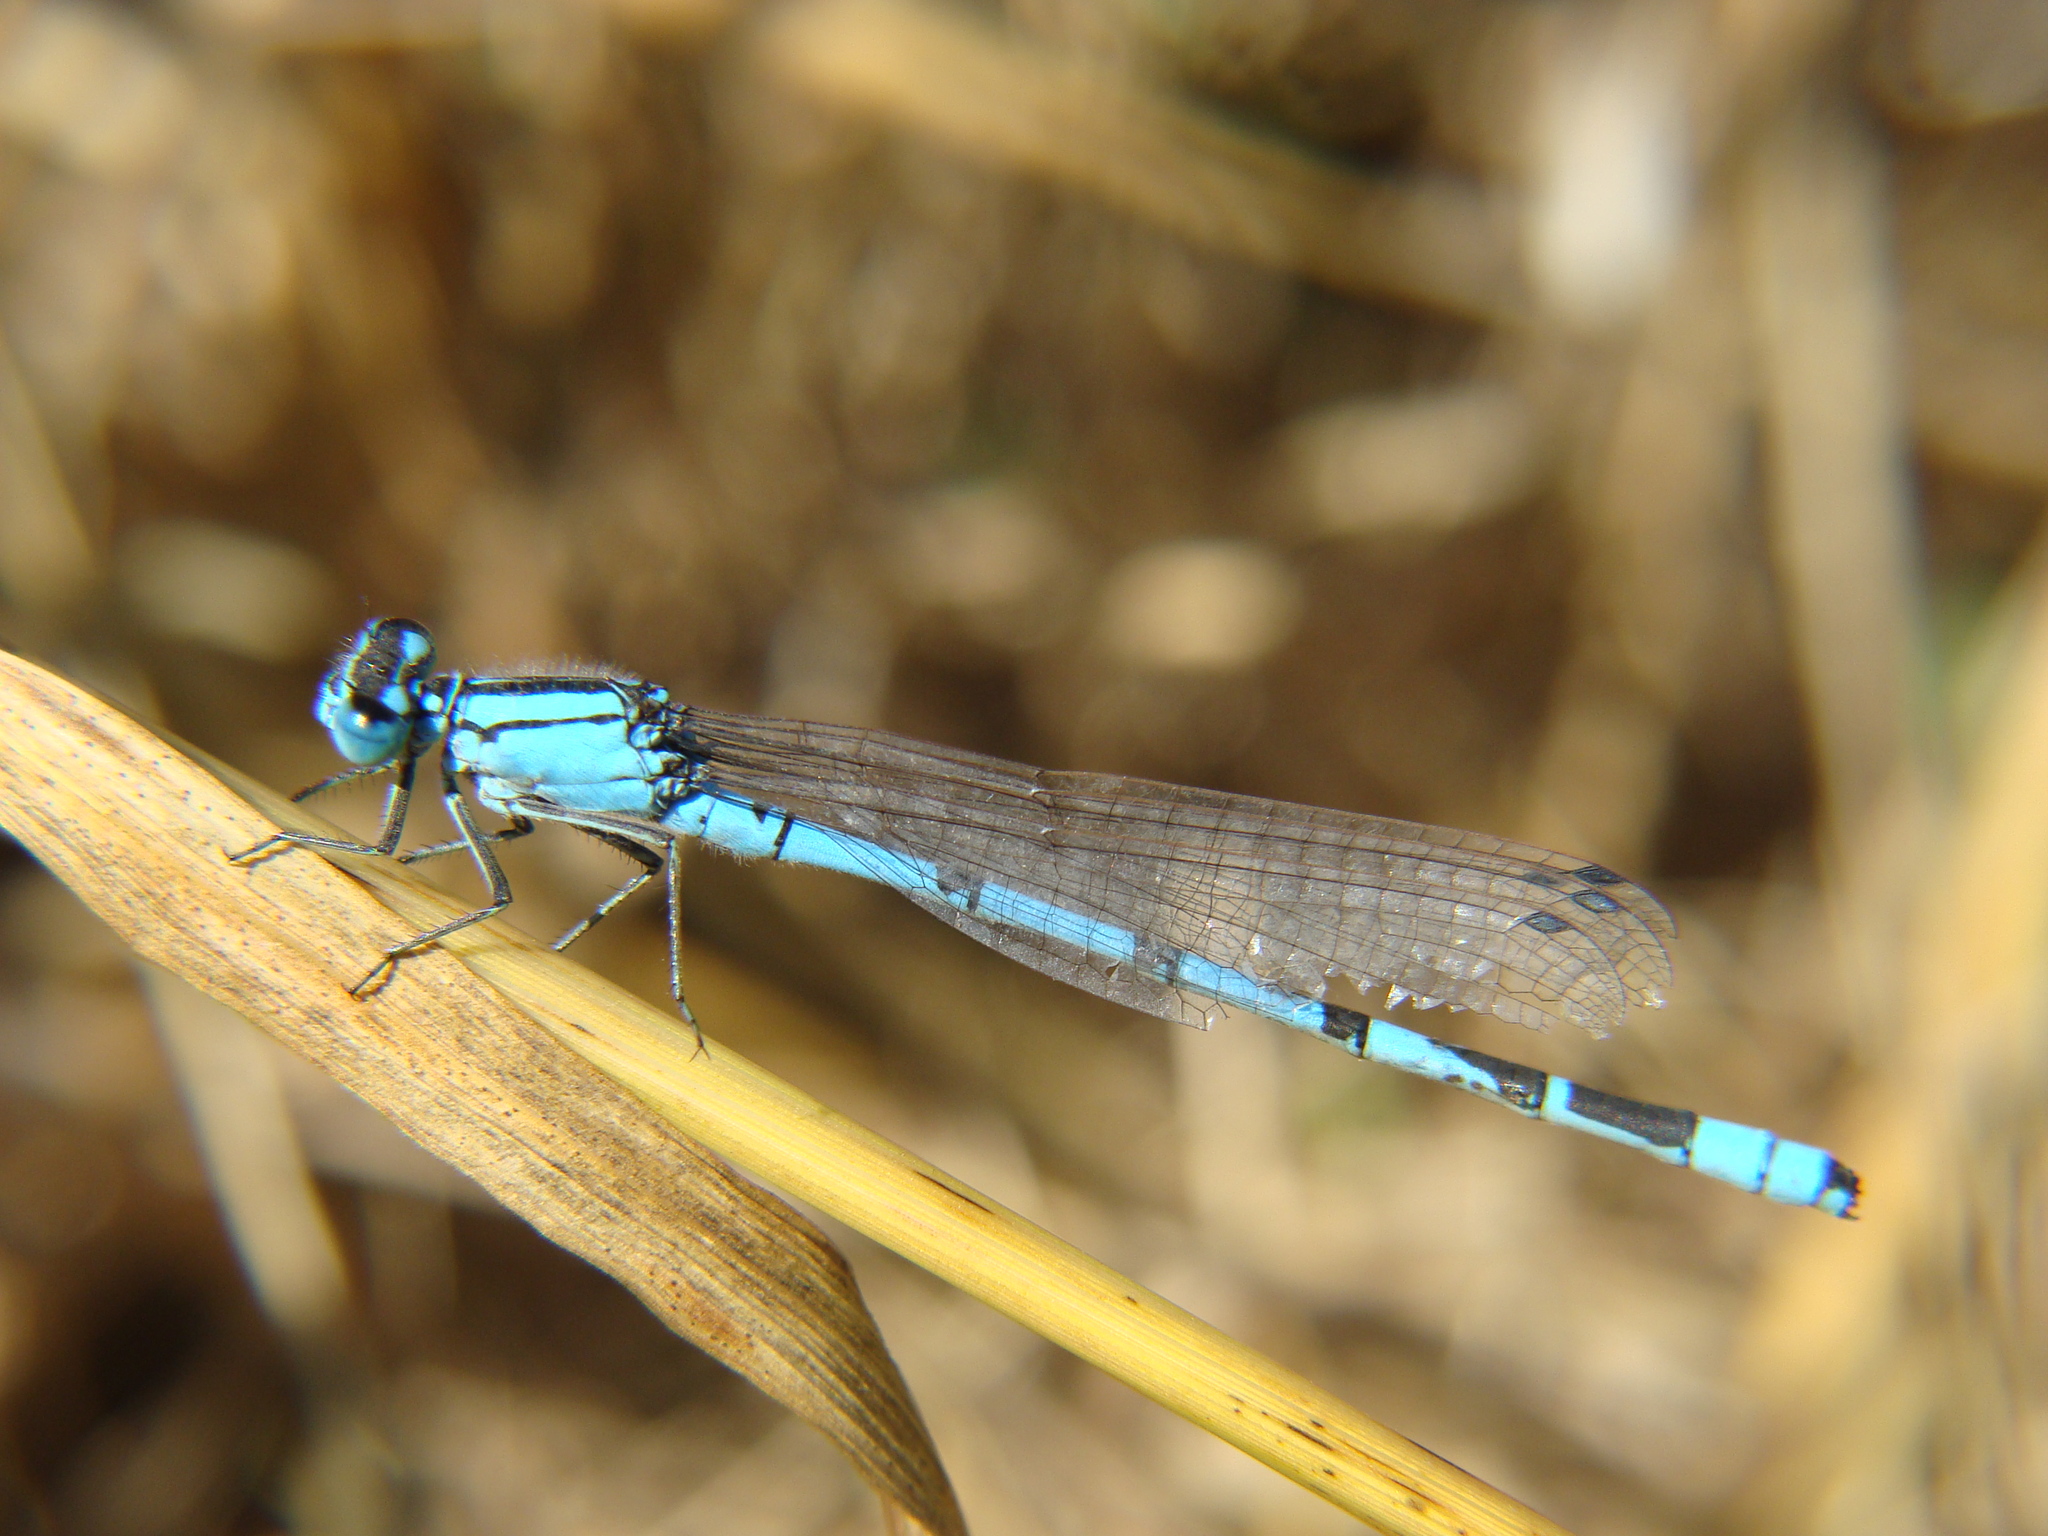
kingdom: Animalia
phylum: Arthropoda
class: Insecta
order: Odonata
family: Coenagrionidae
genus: Enallagma
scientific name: Enallagma cyathigerum
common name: Common blue damselfly
